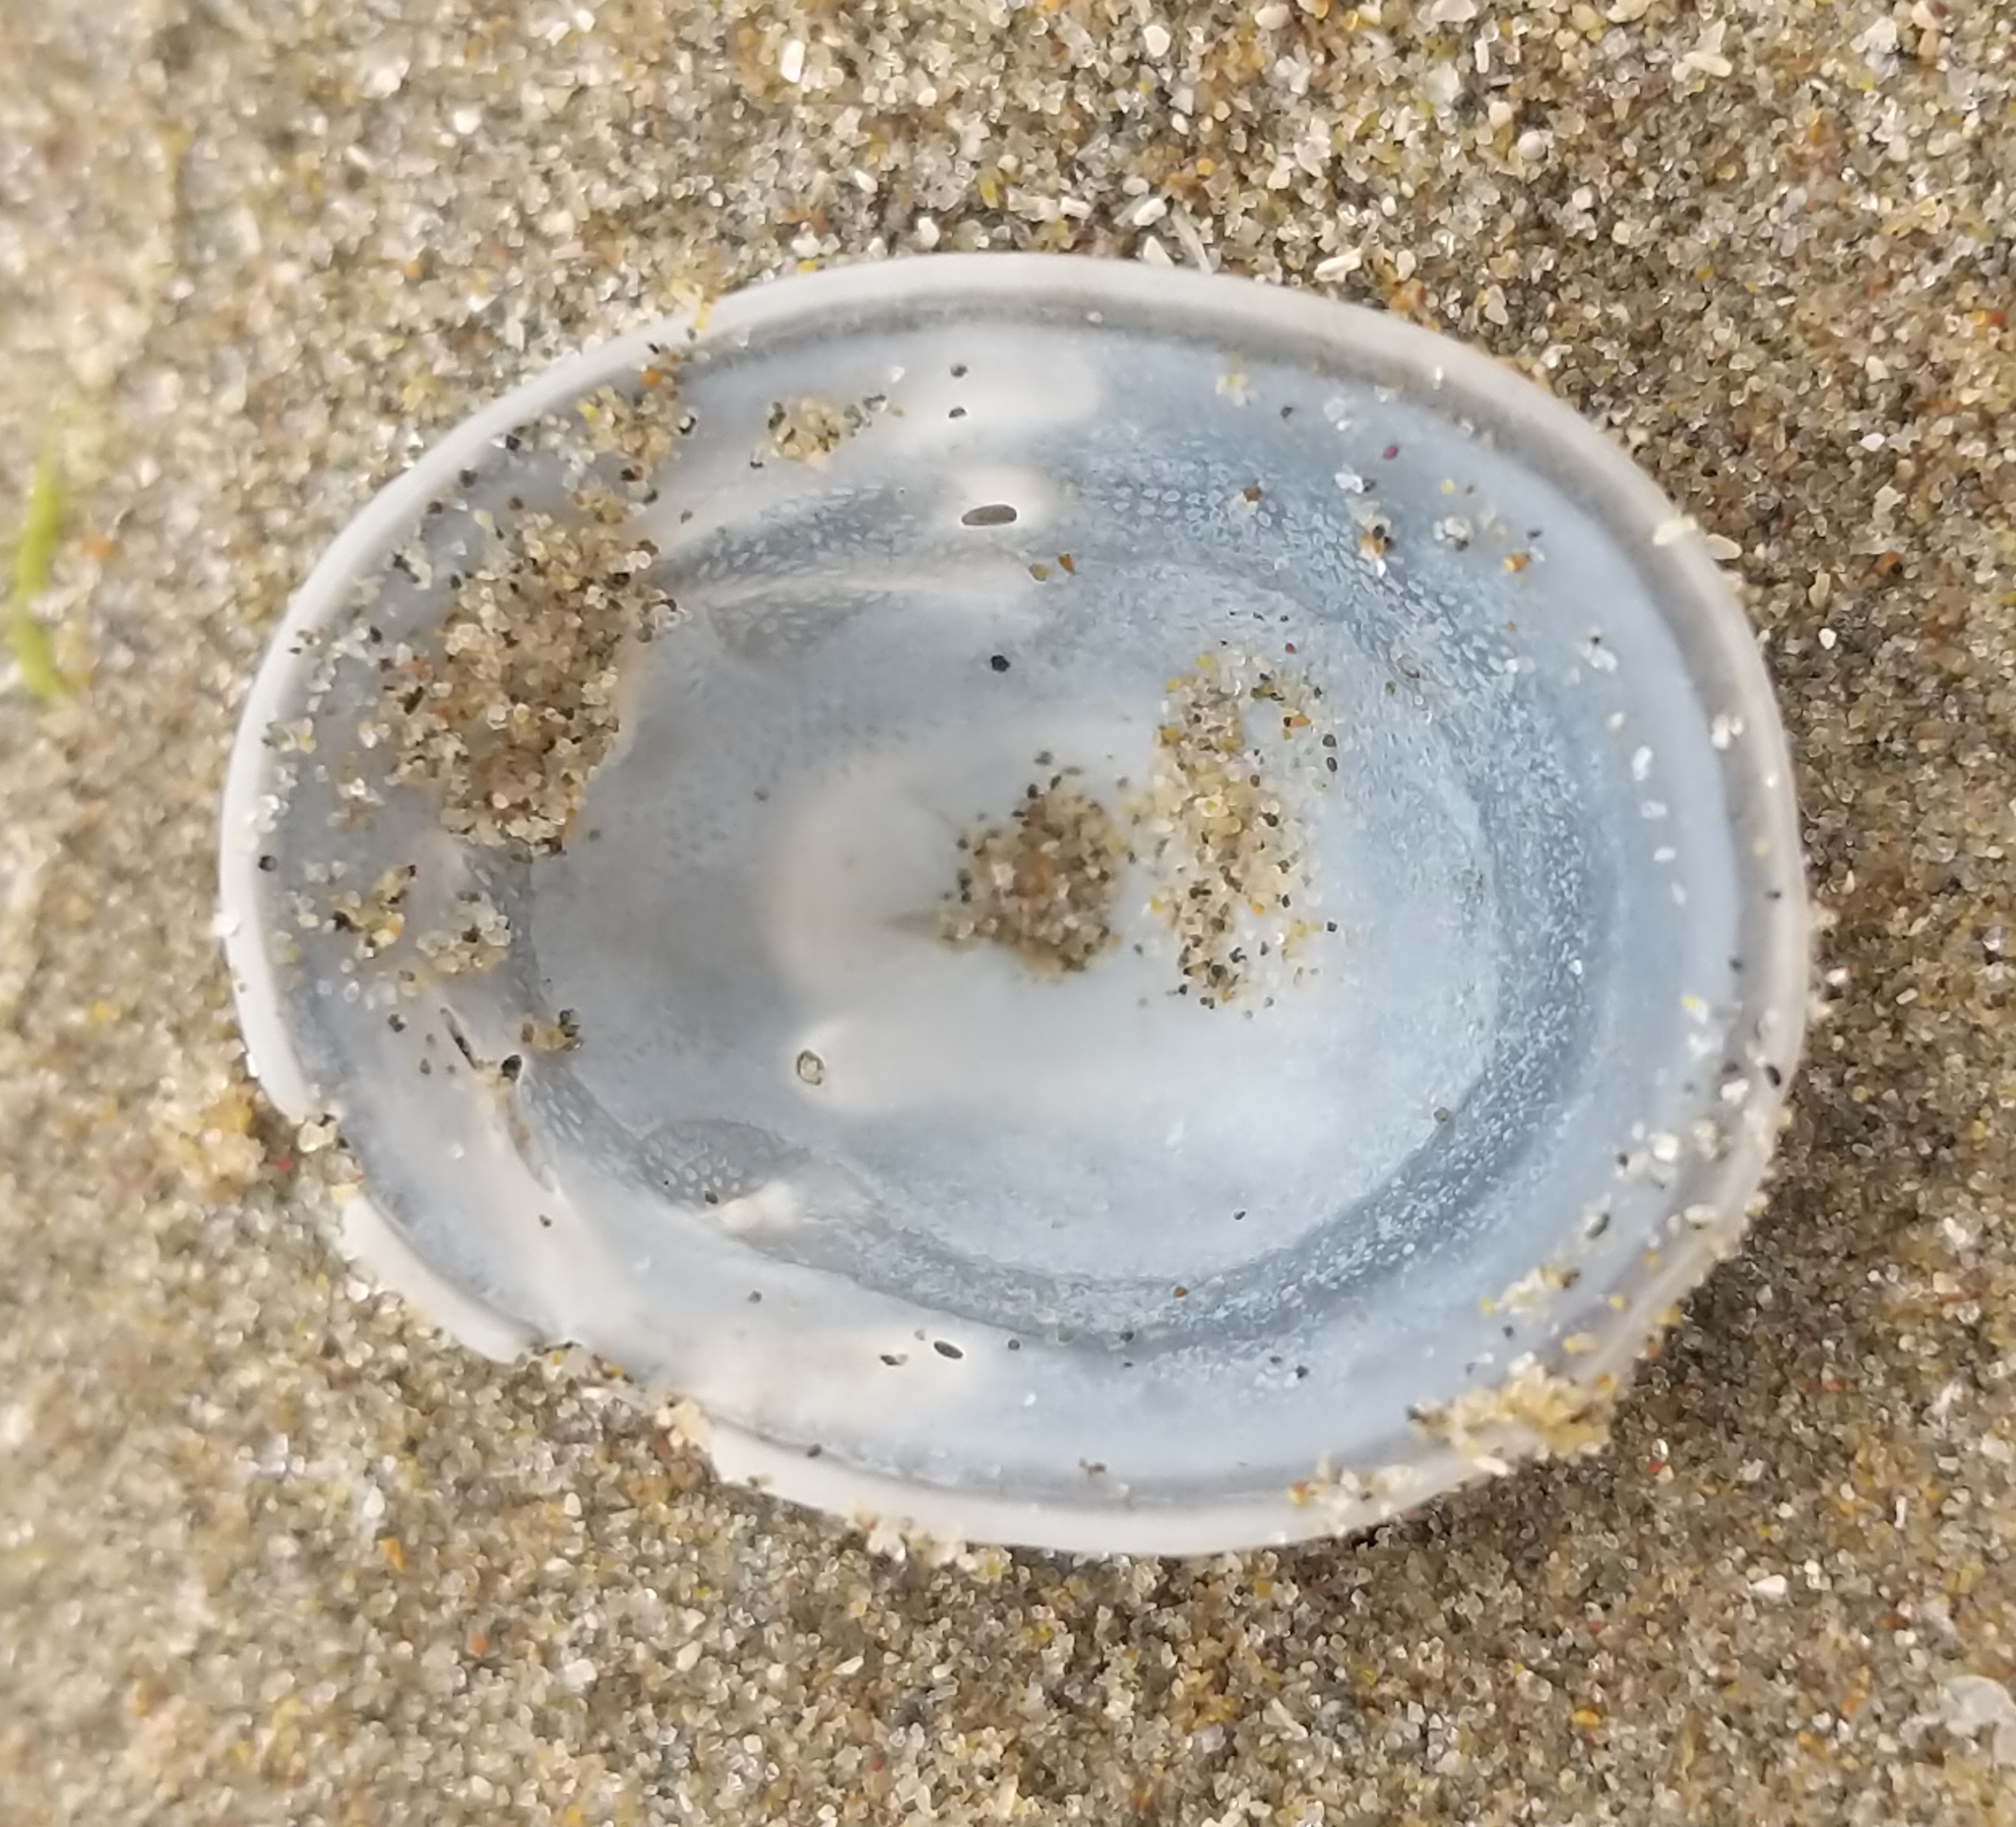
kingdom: Animalia
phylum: Mollusca
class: Gastropoda
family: Acmaeidae
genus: Acmaea
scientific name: Acmaea mitra
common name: Pacific white cap limpet
